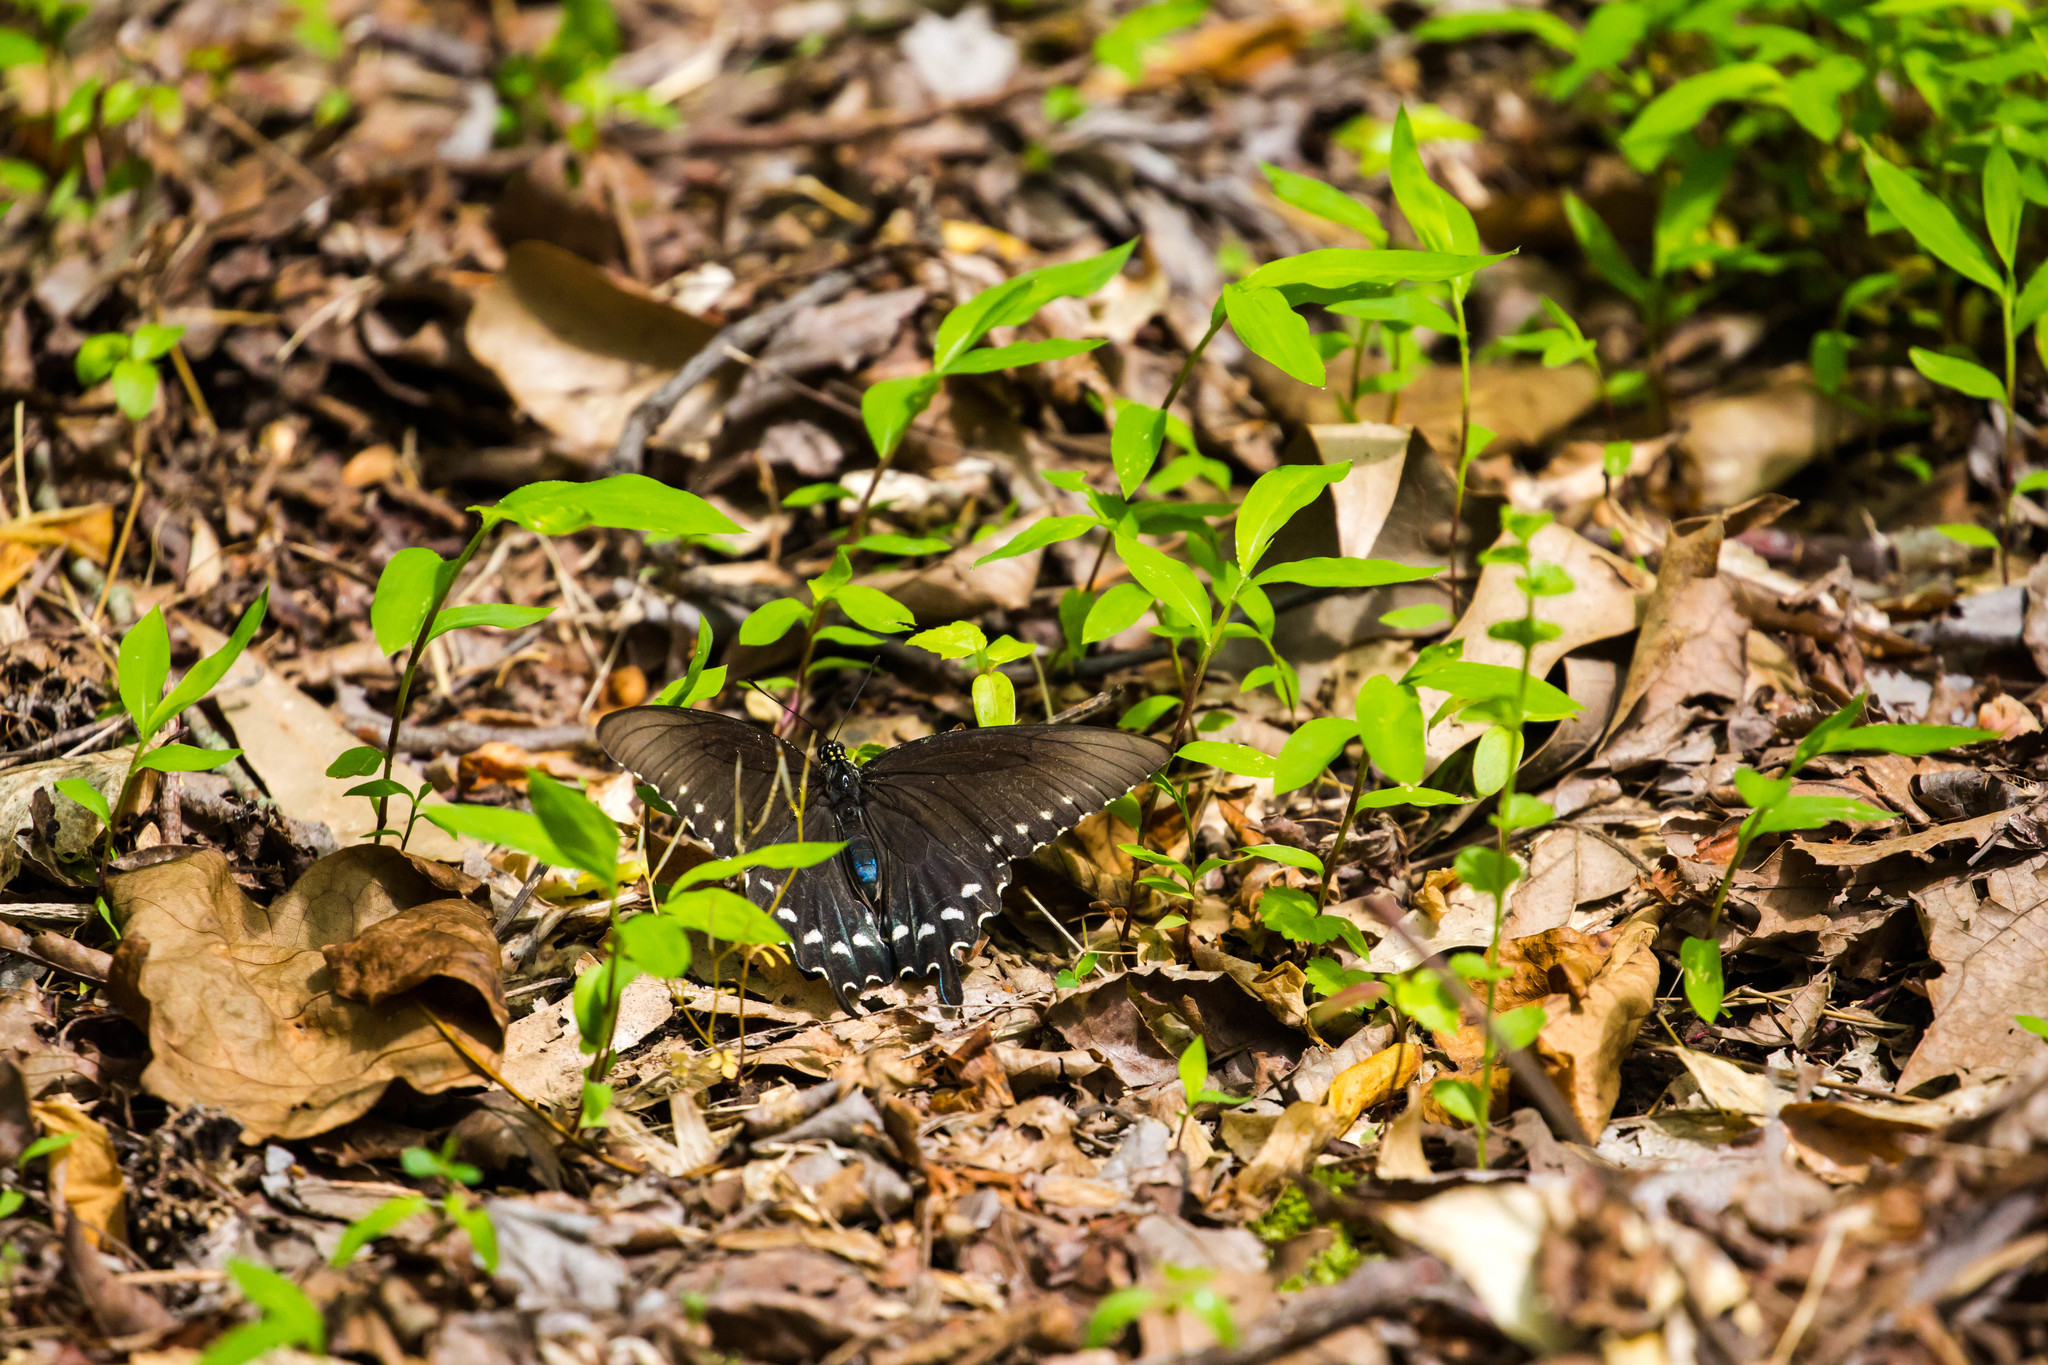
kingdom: Animalia
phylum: Arthropoda
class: Insecta
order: Lepidoptera
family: Papilionidae
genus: Battus
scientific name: Battus philenor
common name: Pipevine swallowtail
